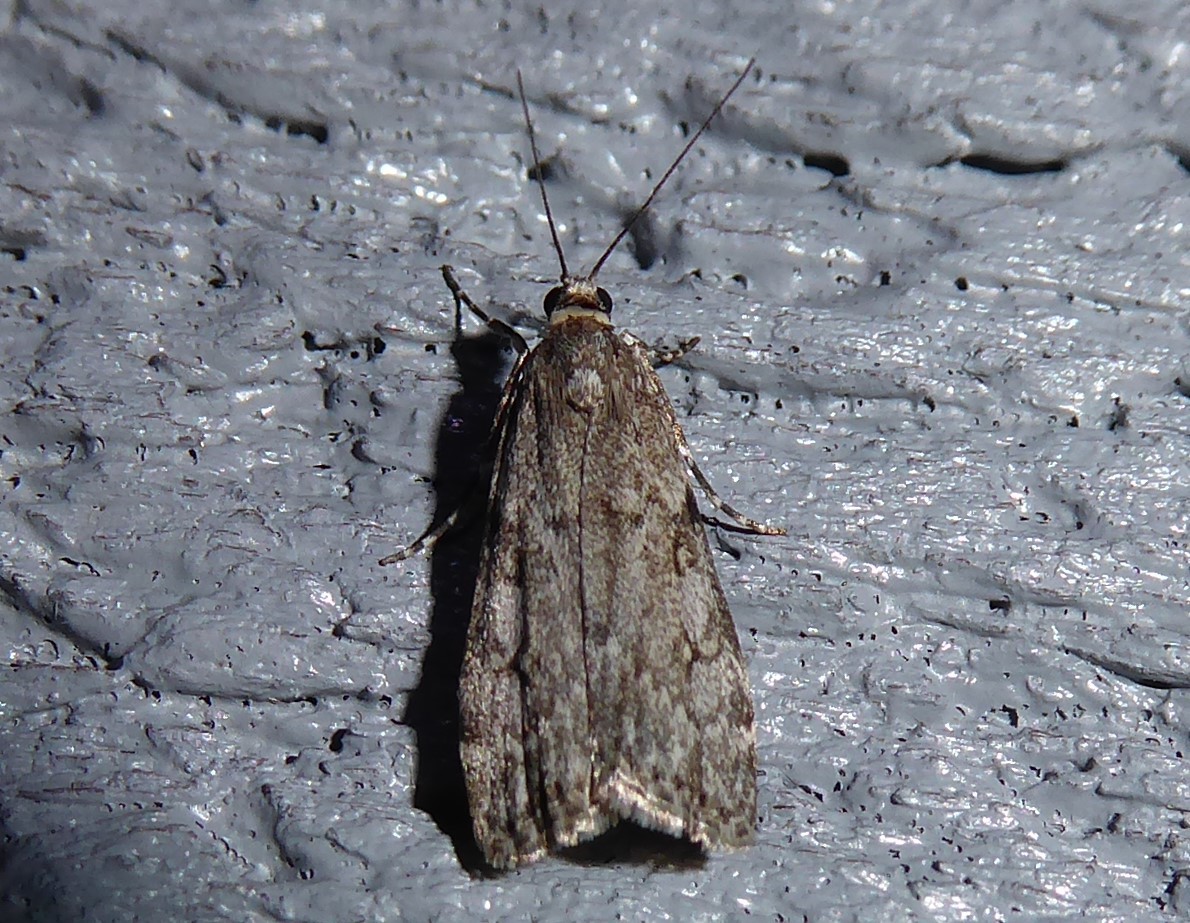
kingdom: Animalia
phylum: Arthropoda
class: Insecta
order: Lepidoptera
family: Crambidae
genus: Eudonia
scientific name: Eudonia cymatias
